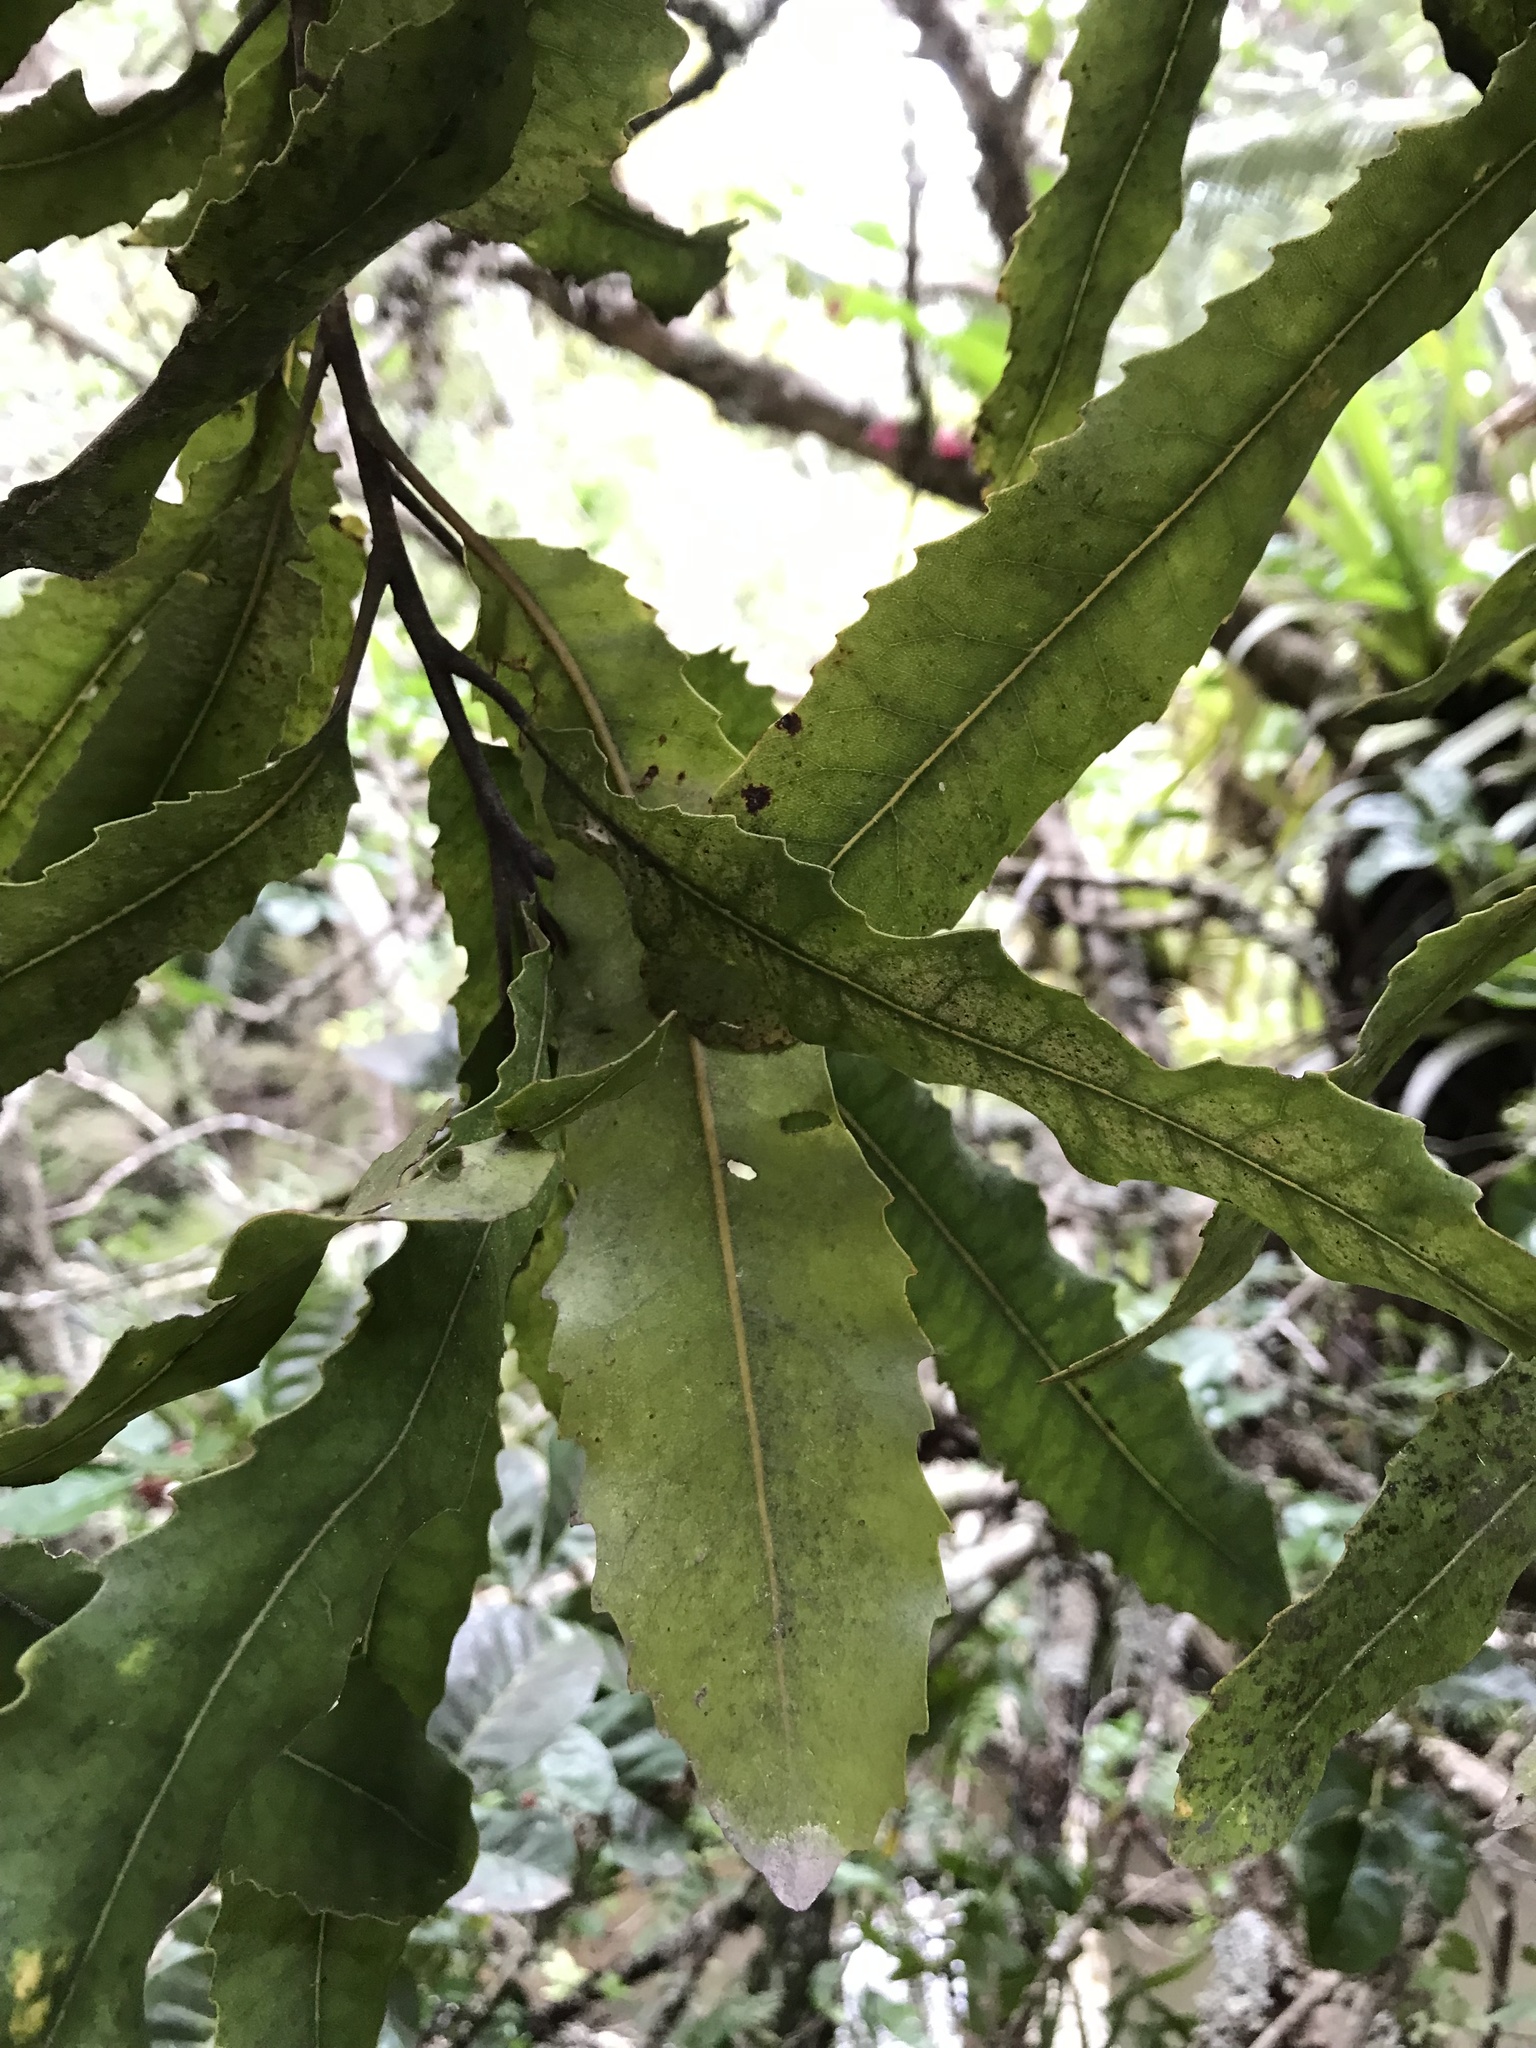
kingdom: Plantae
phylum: Tracheophyta
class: Magnoliopsida
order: Proteales
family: Proteaceae
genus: Knightia
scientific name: Knightia excelsa
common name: New zealand-honeysuckle
